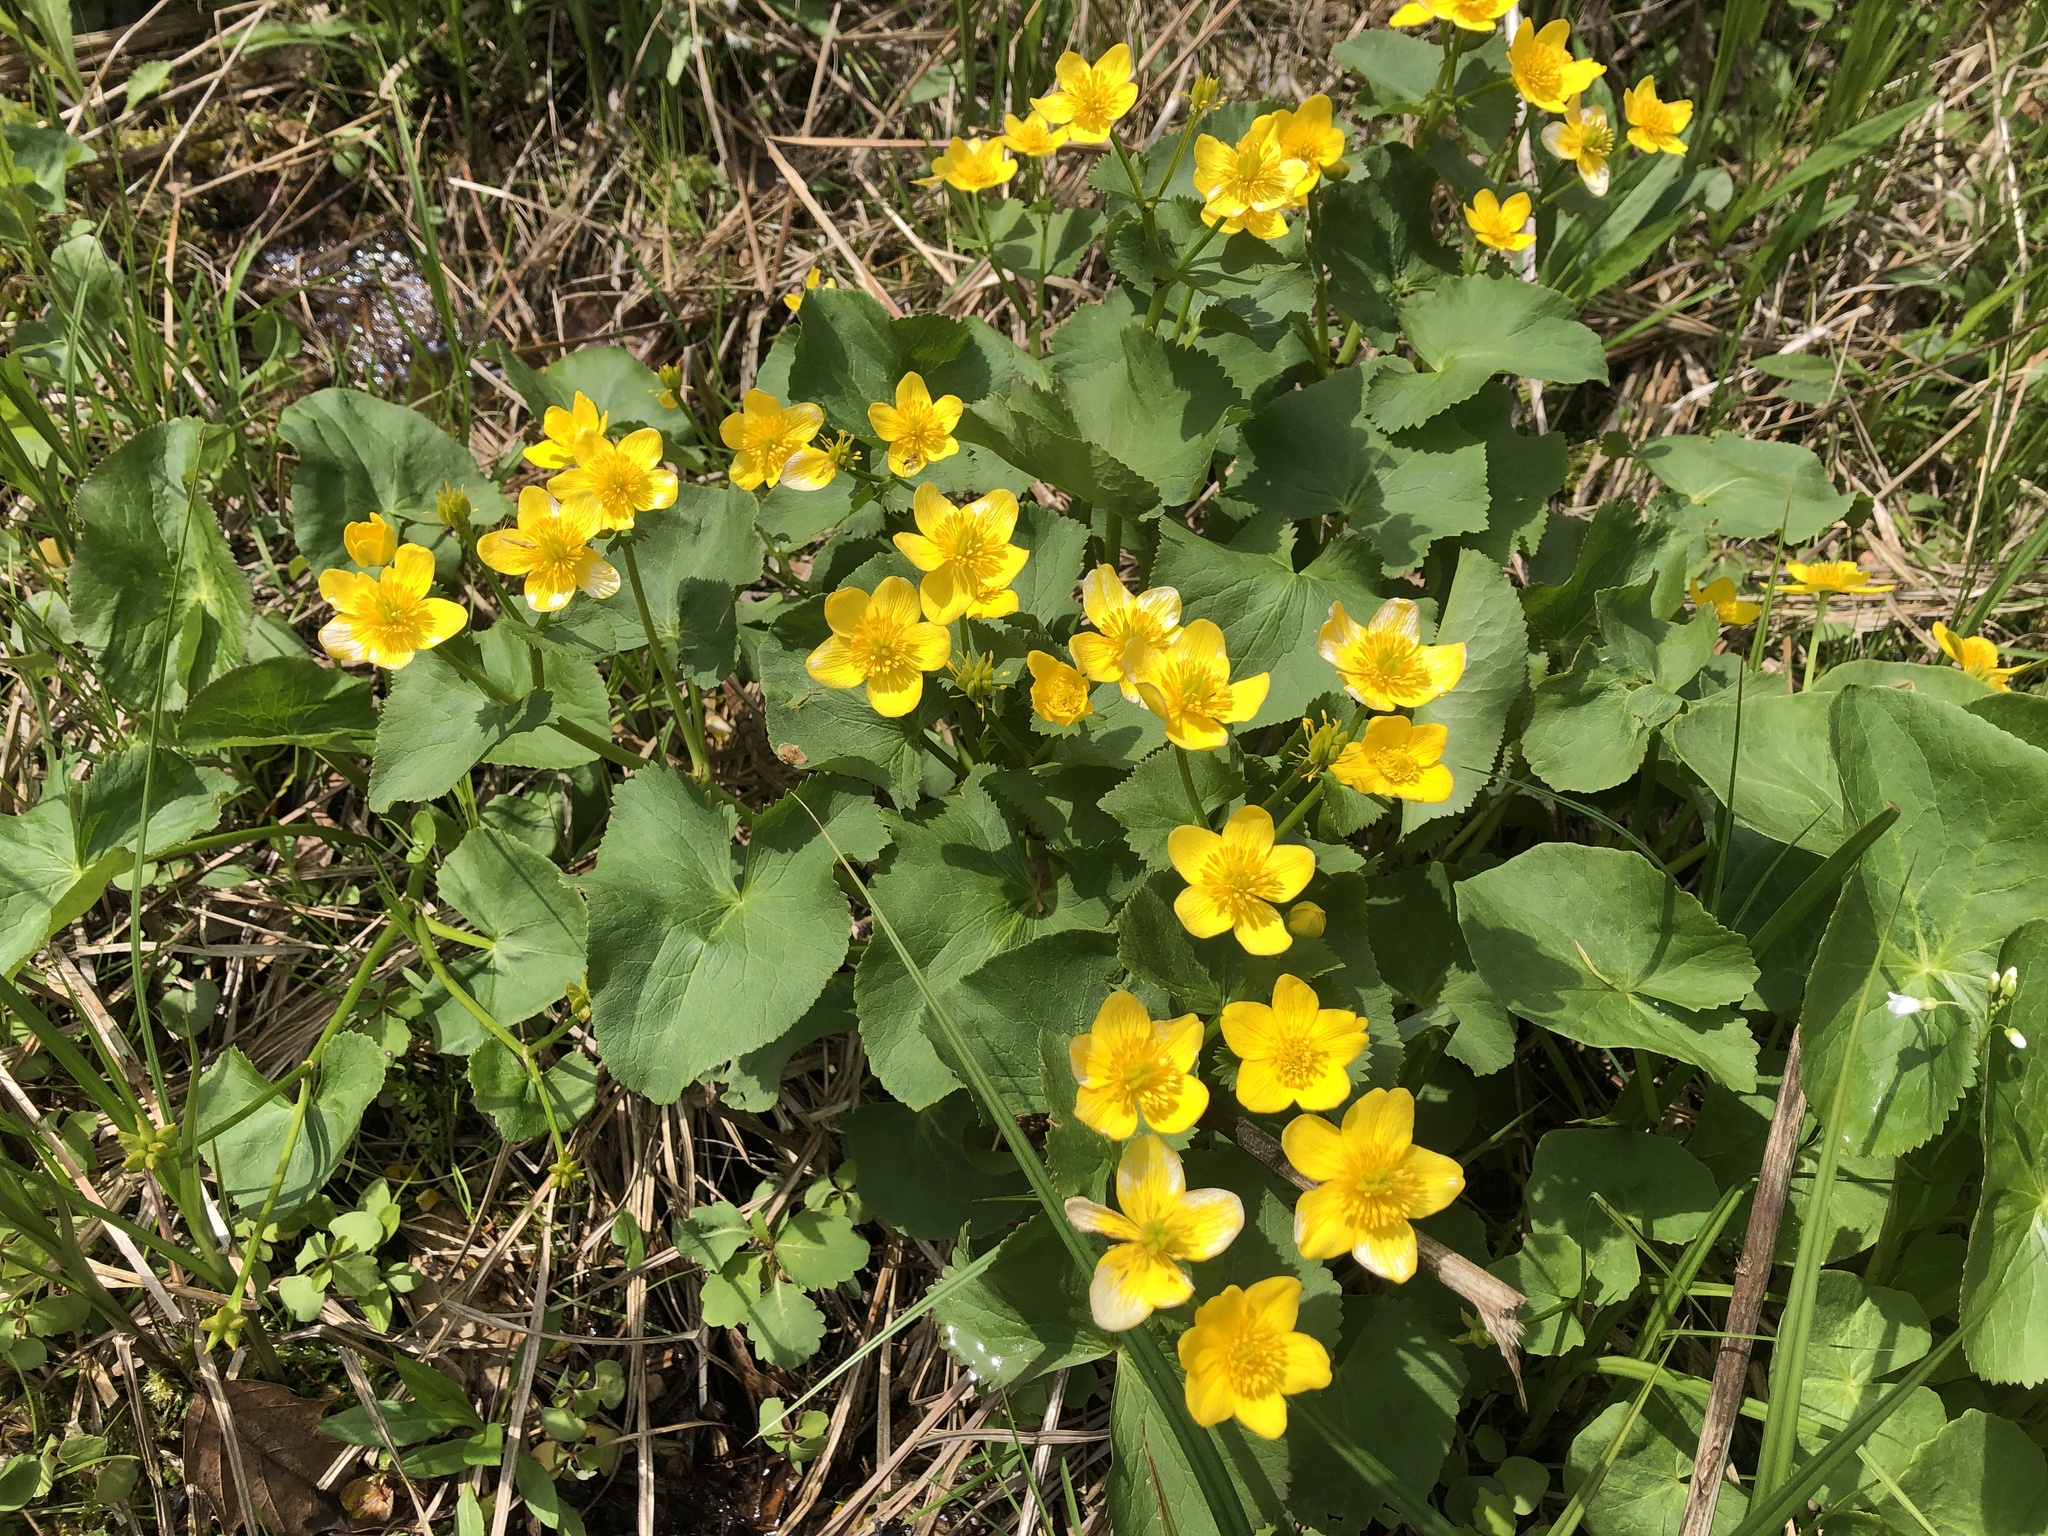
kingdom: Plantae
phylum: Tracheophyta
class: Magnoliopsida
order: Ranunculales
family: Ranunculaceae
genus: Caltha
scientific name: Caltha palustris
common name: Marsh marigold
